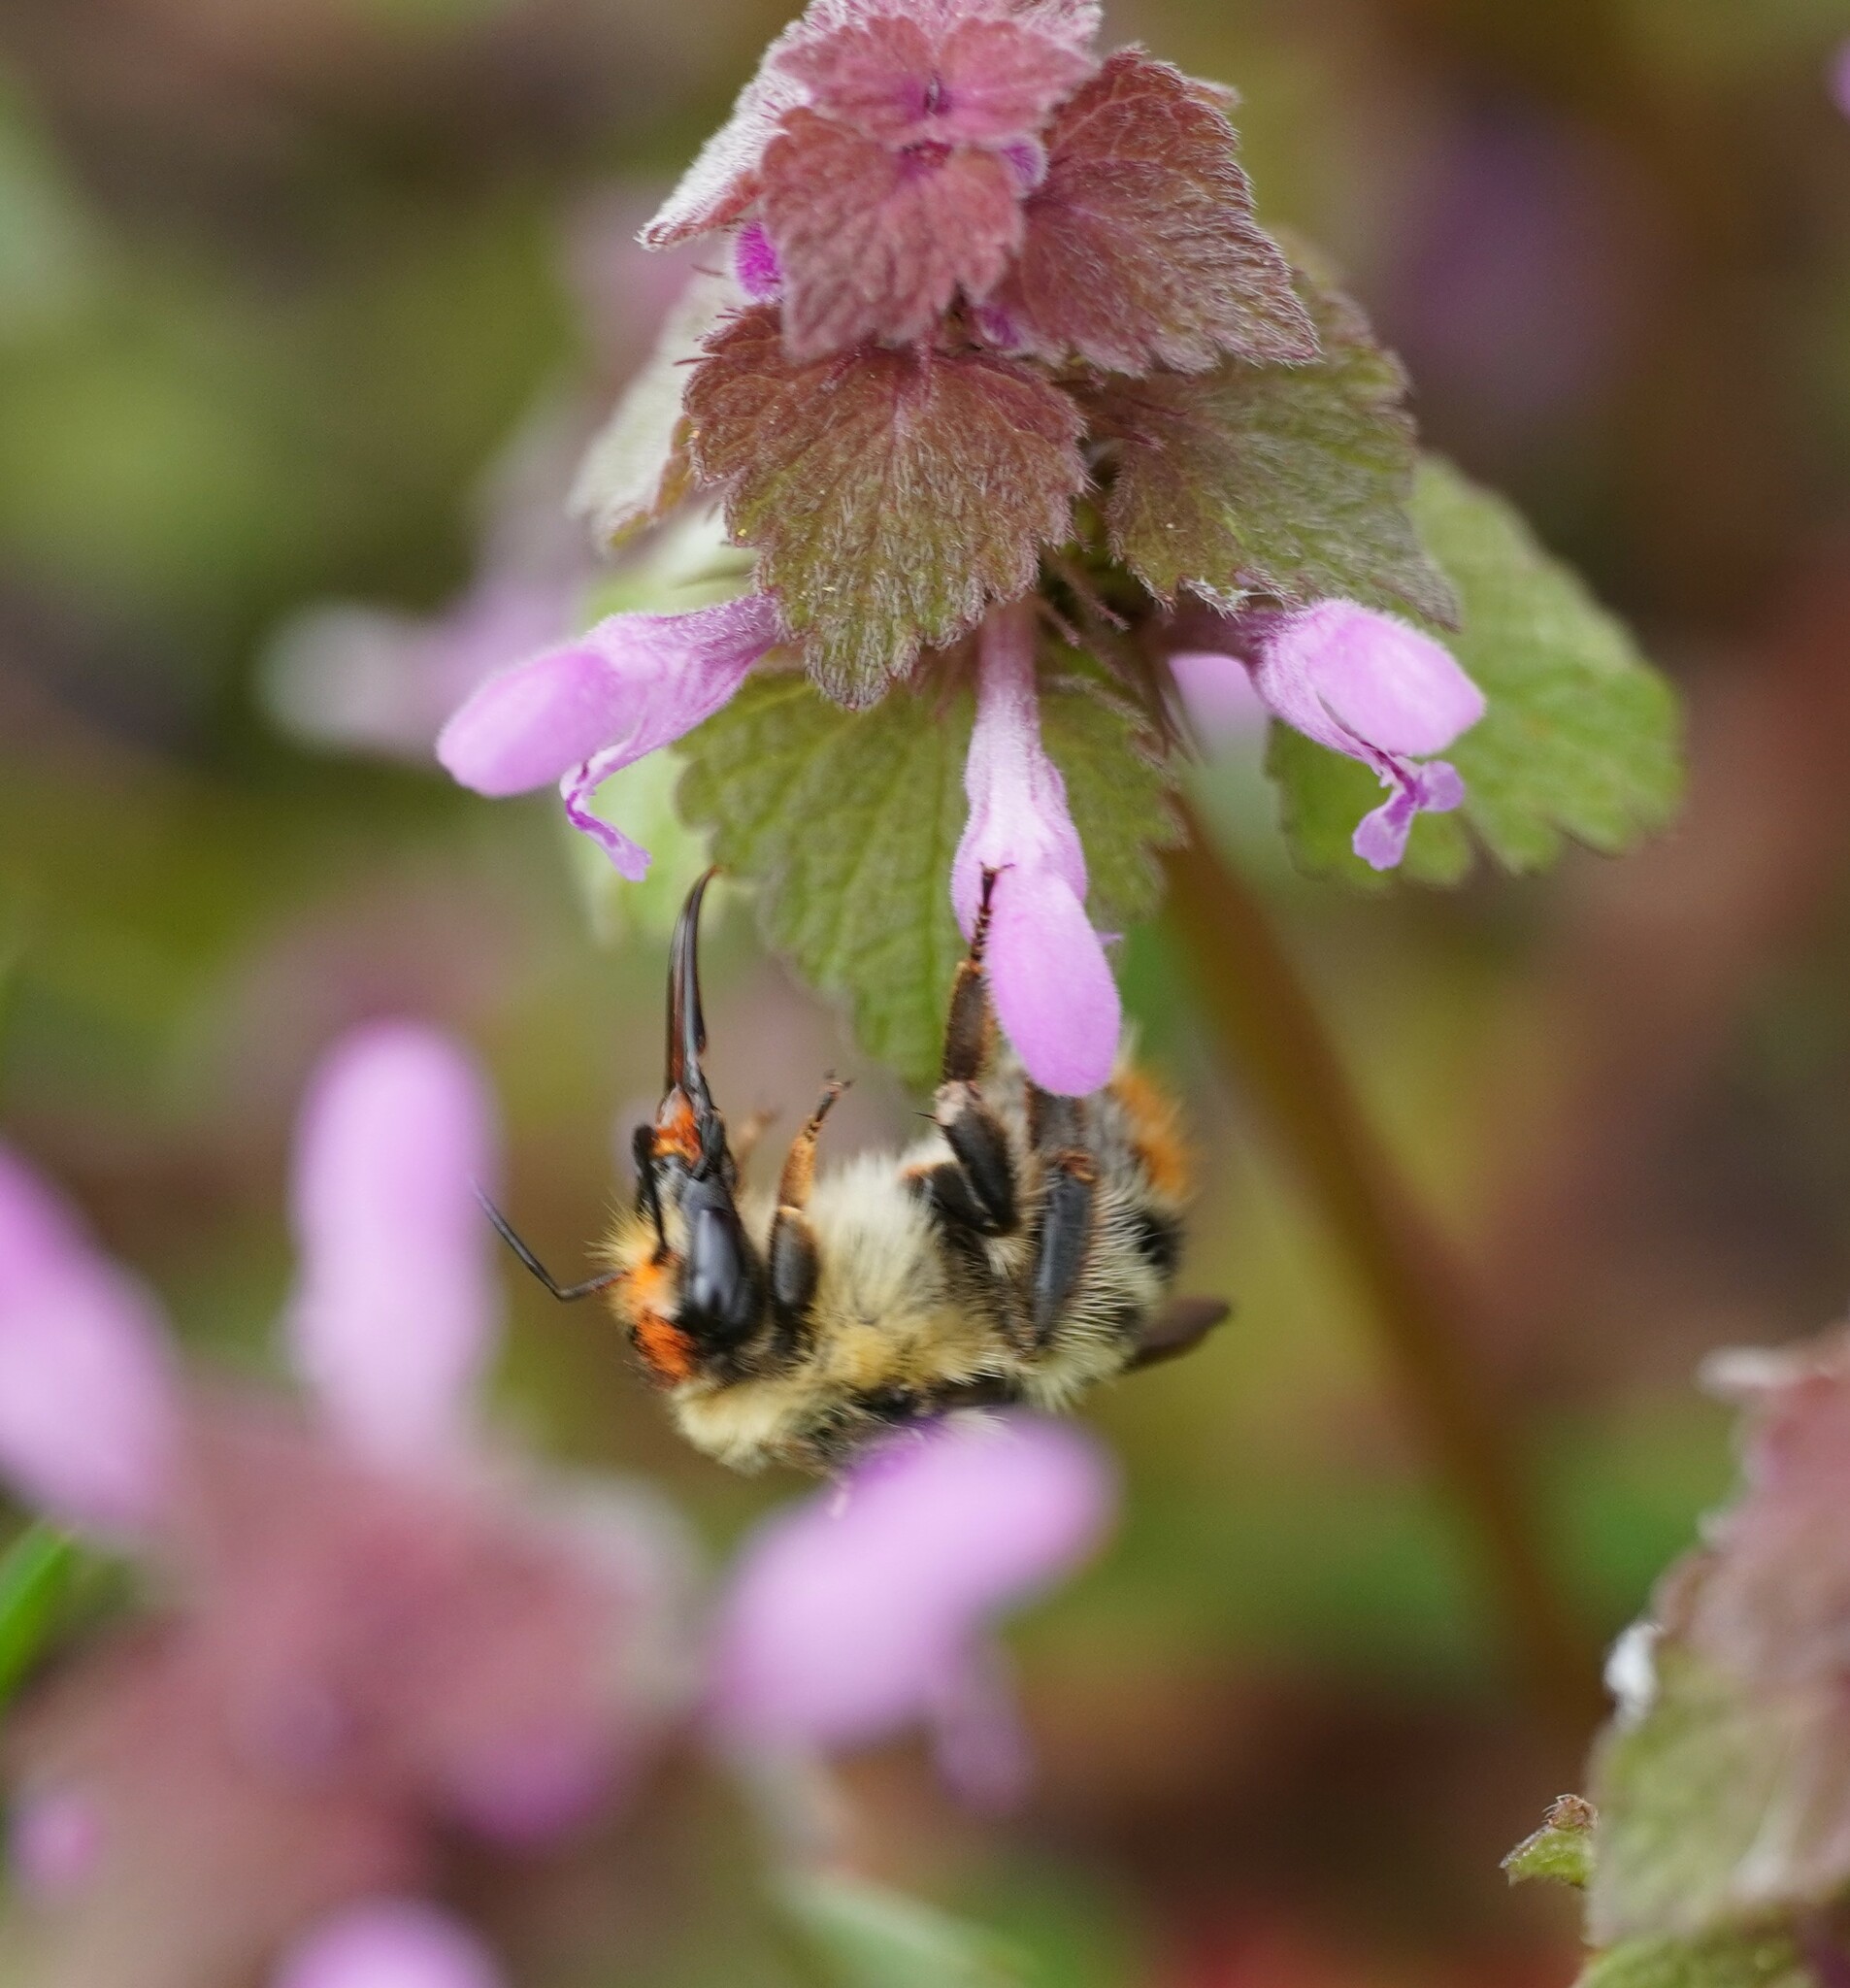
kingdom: Animalia
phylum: Arthropoda
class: Insecta
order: Hymenoptera
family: Apidae
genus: Bombus
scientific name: Bombus sylvarum
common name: Shrill carder bee
